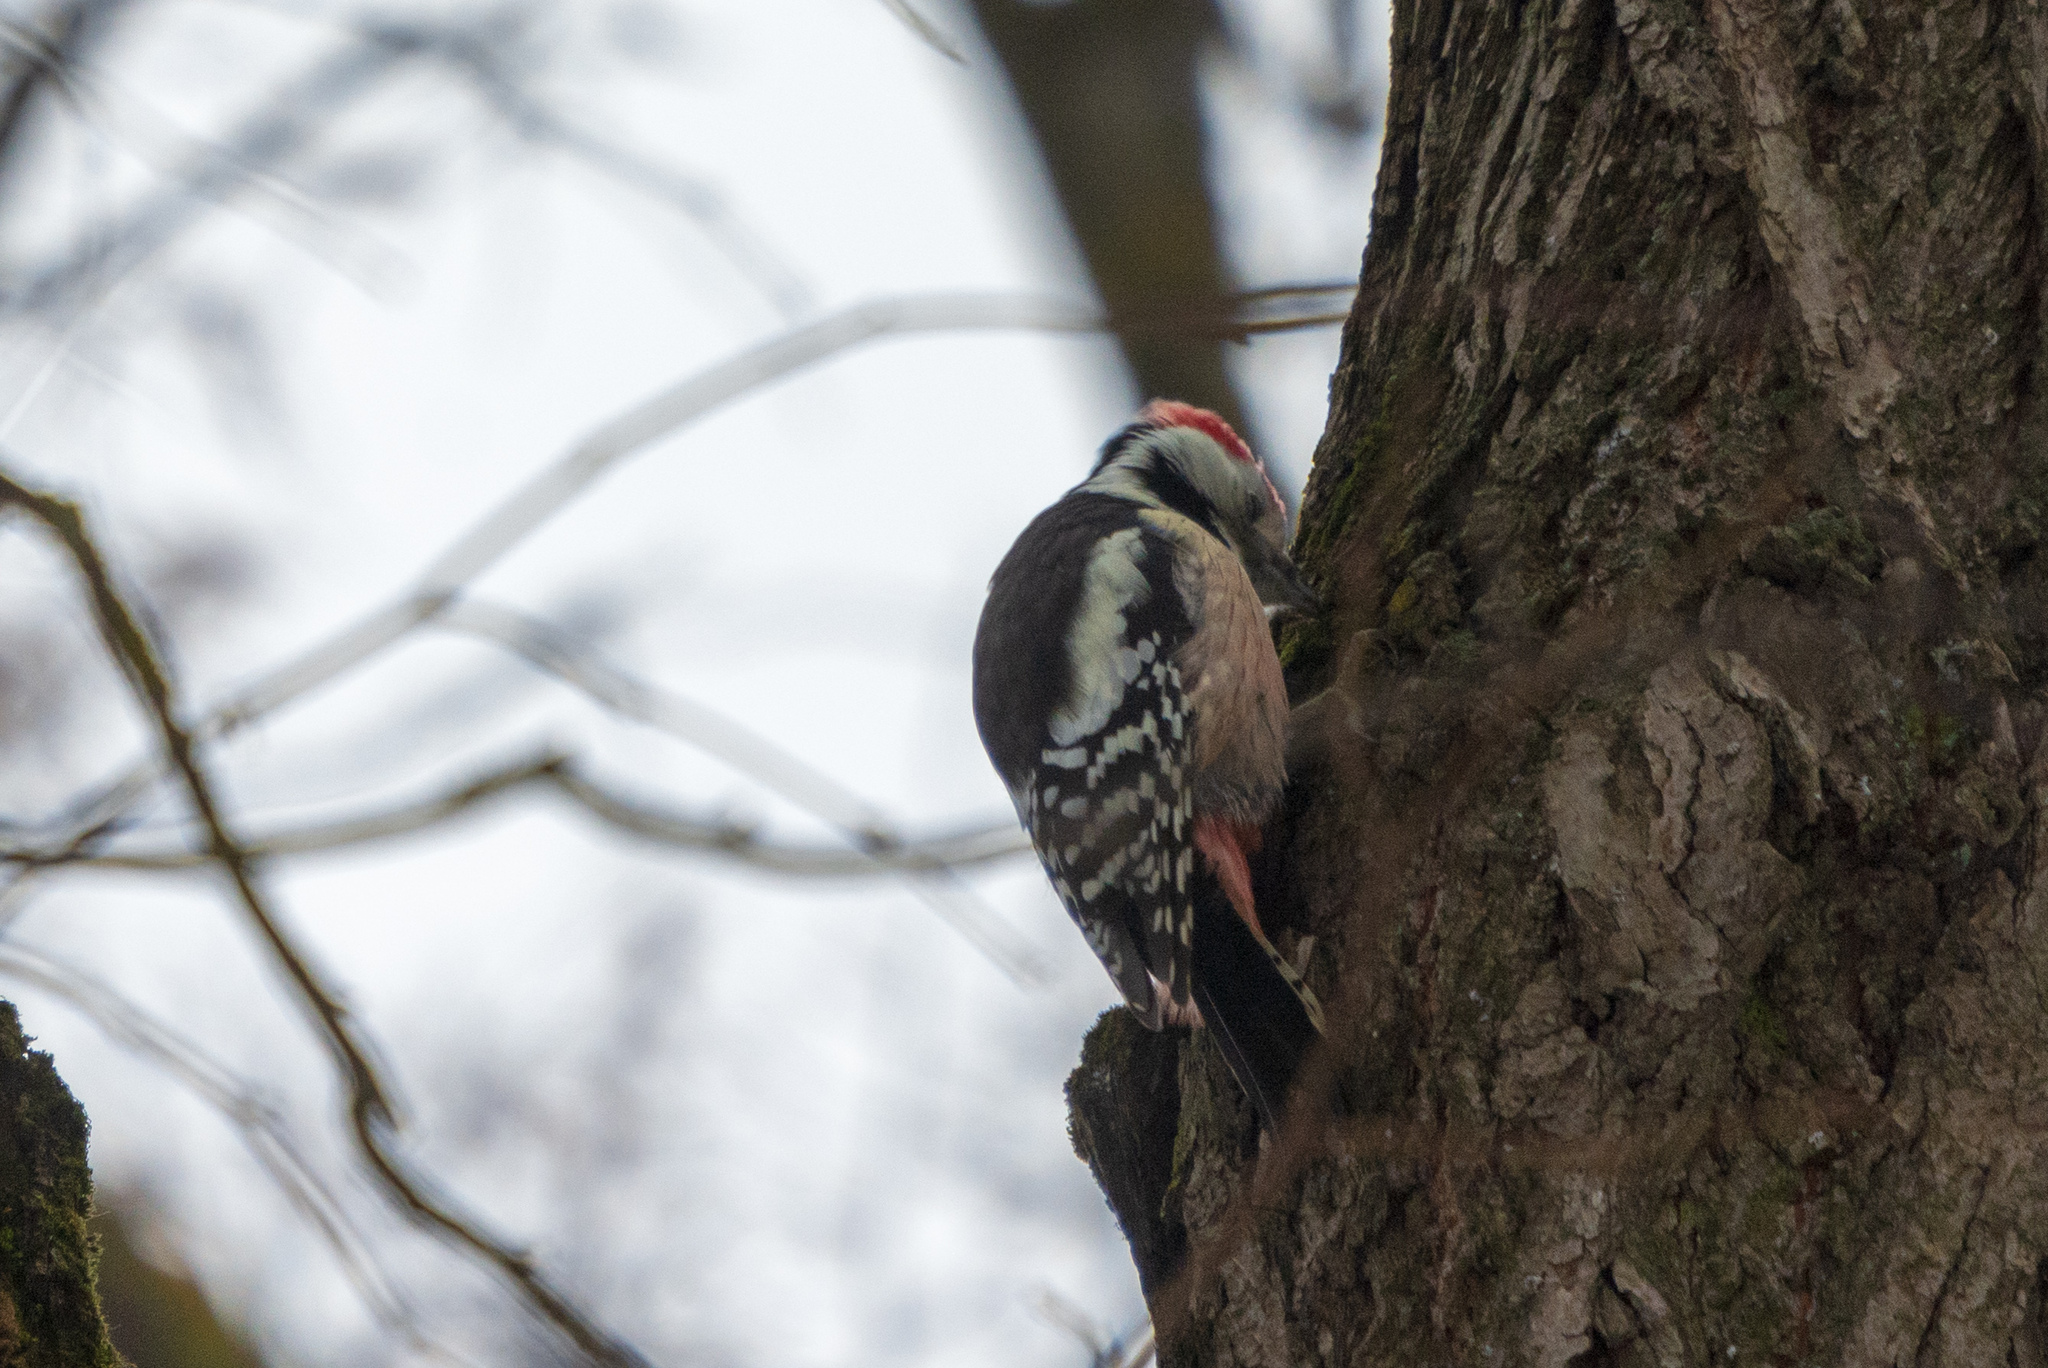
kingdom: Animalia
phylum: Chordata
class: Aves
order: Piciformes
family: Picidae
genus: Dendrocoptes
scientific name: Dendrocoptes medius
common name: Middle spotted woodpecker
